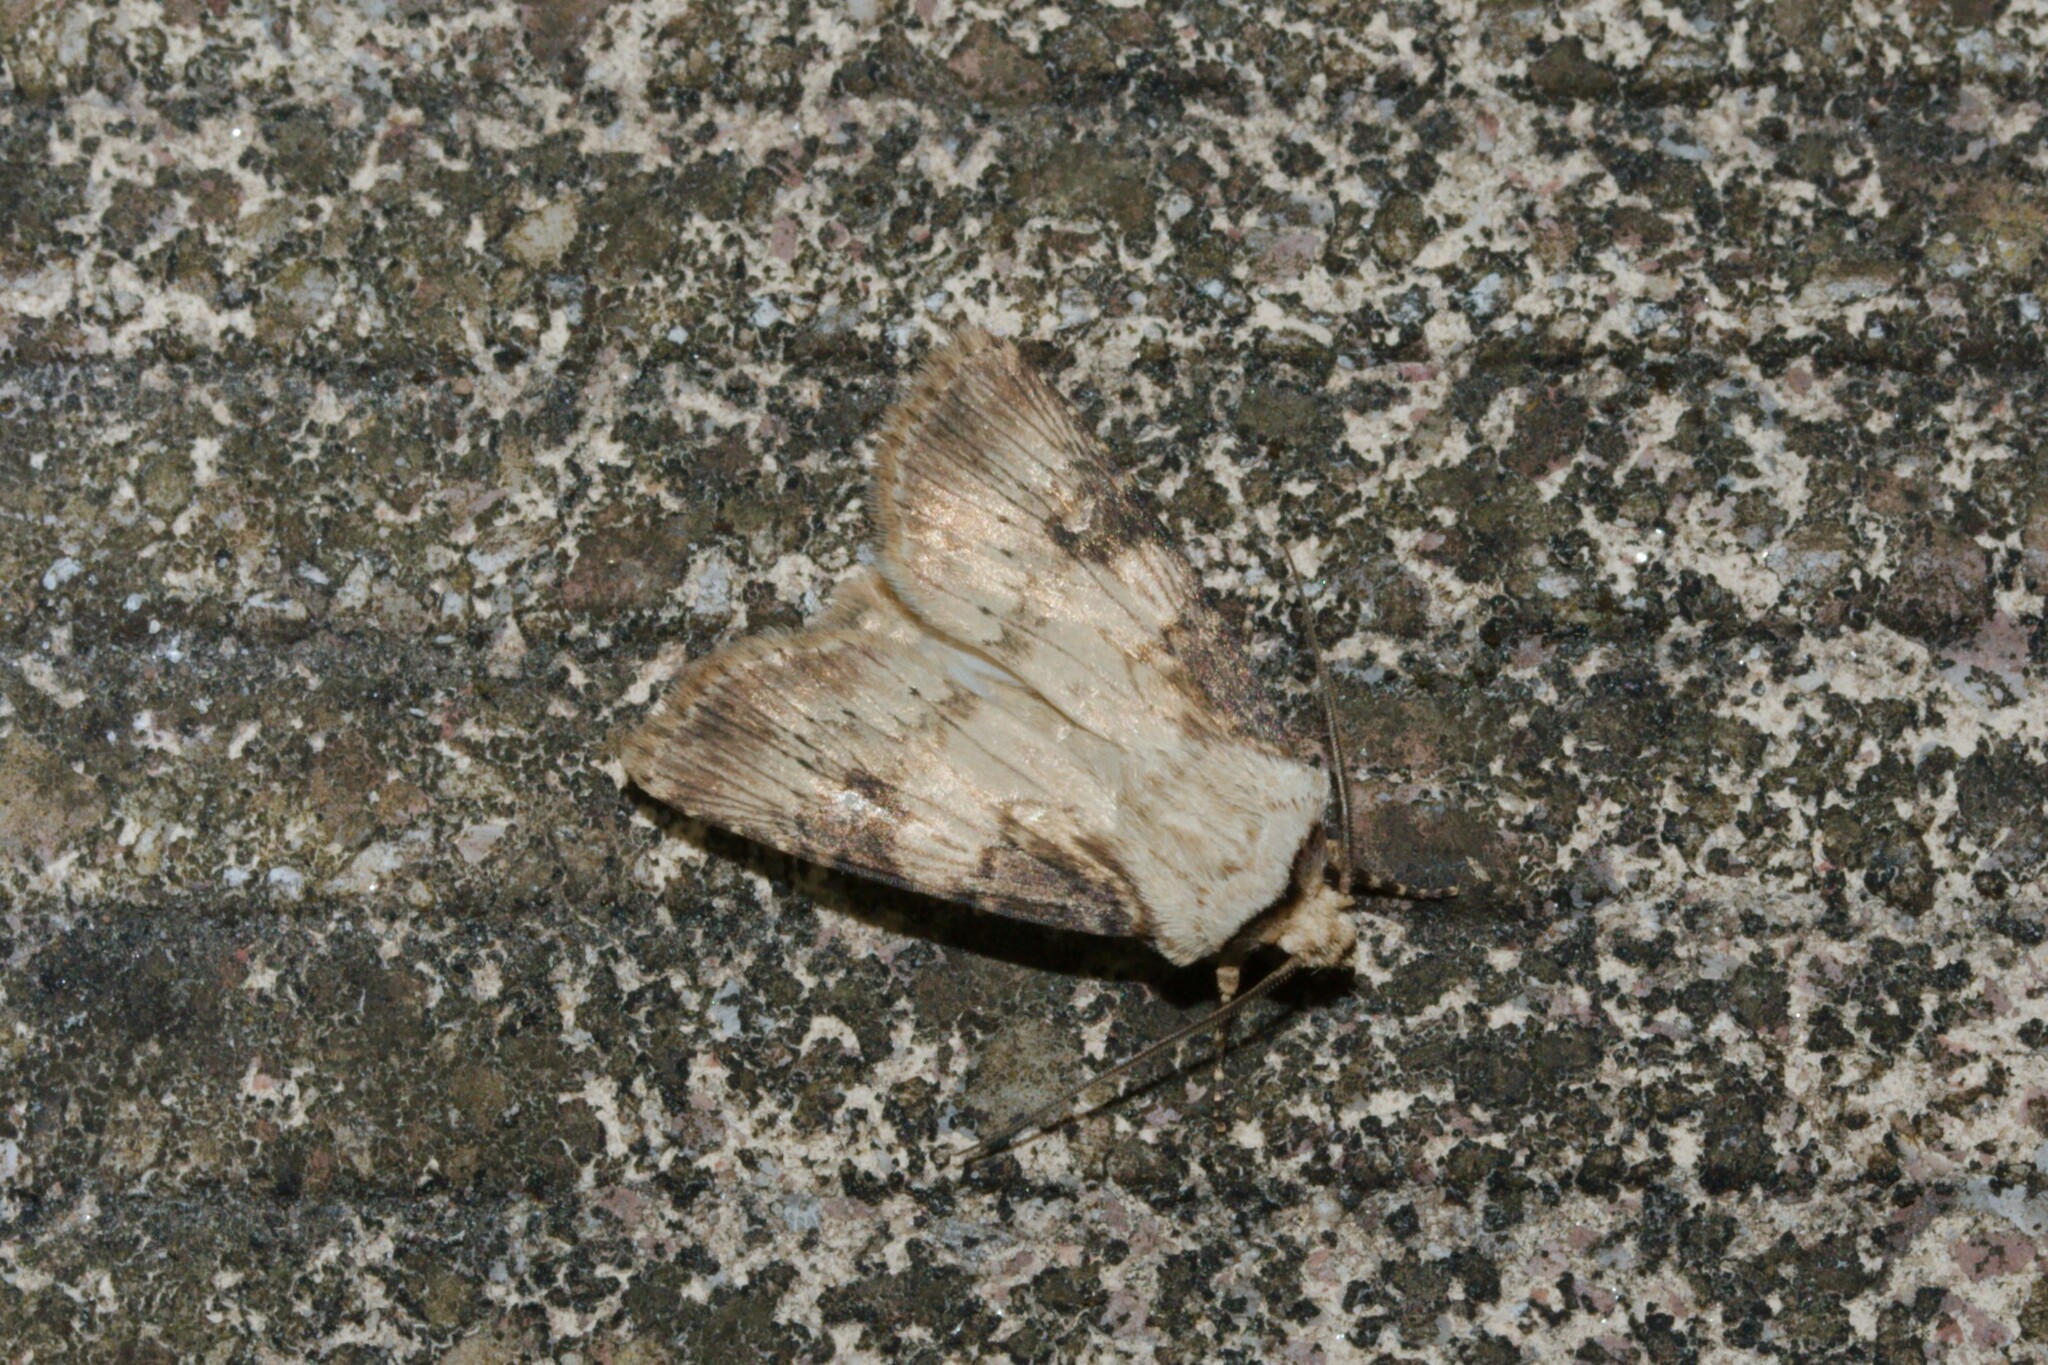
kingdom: Animalia
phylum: Arthropoda
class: Insecta
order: Lepidoptera
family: Noctuidae
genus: Agrotis
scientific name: Agrotis puta
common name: Shuttle-shaped dart
